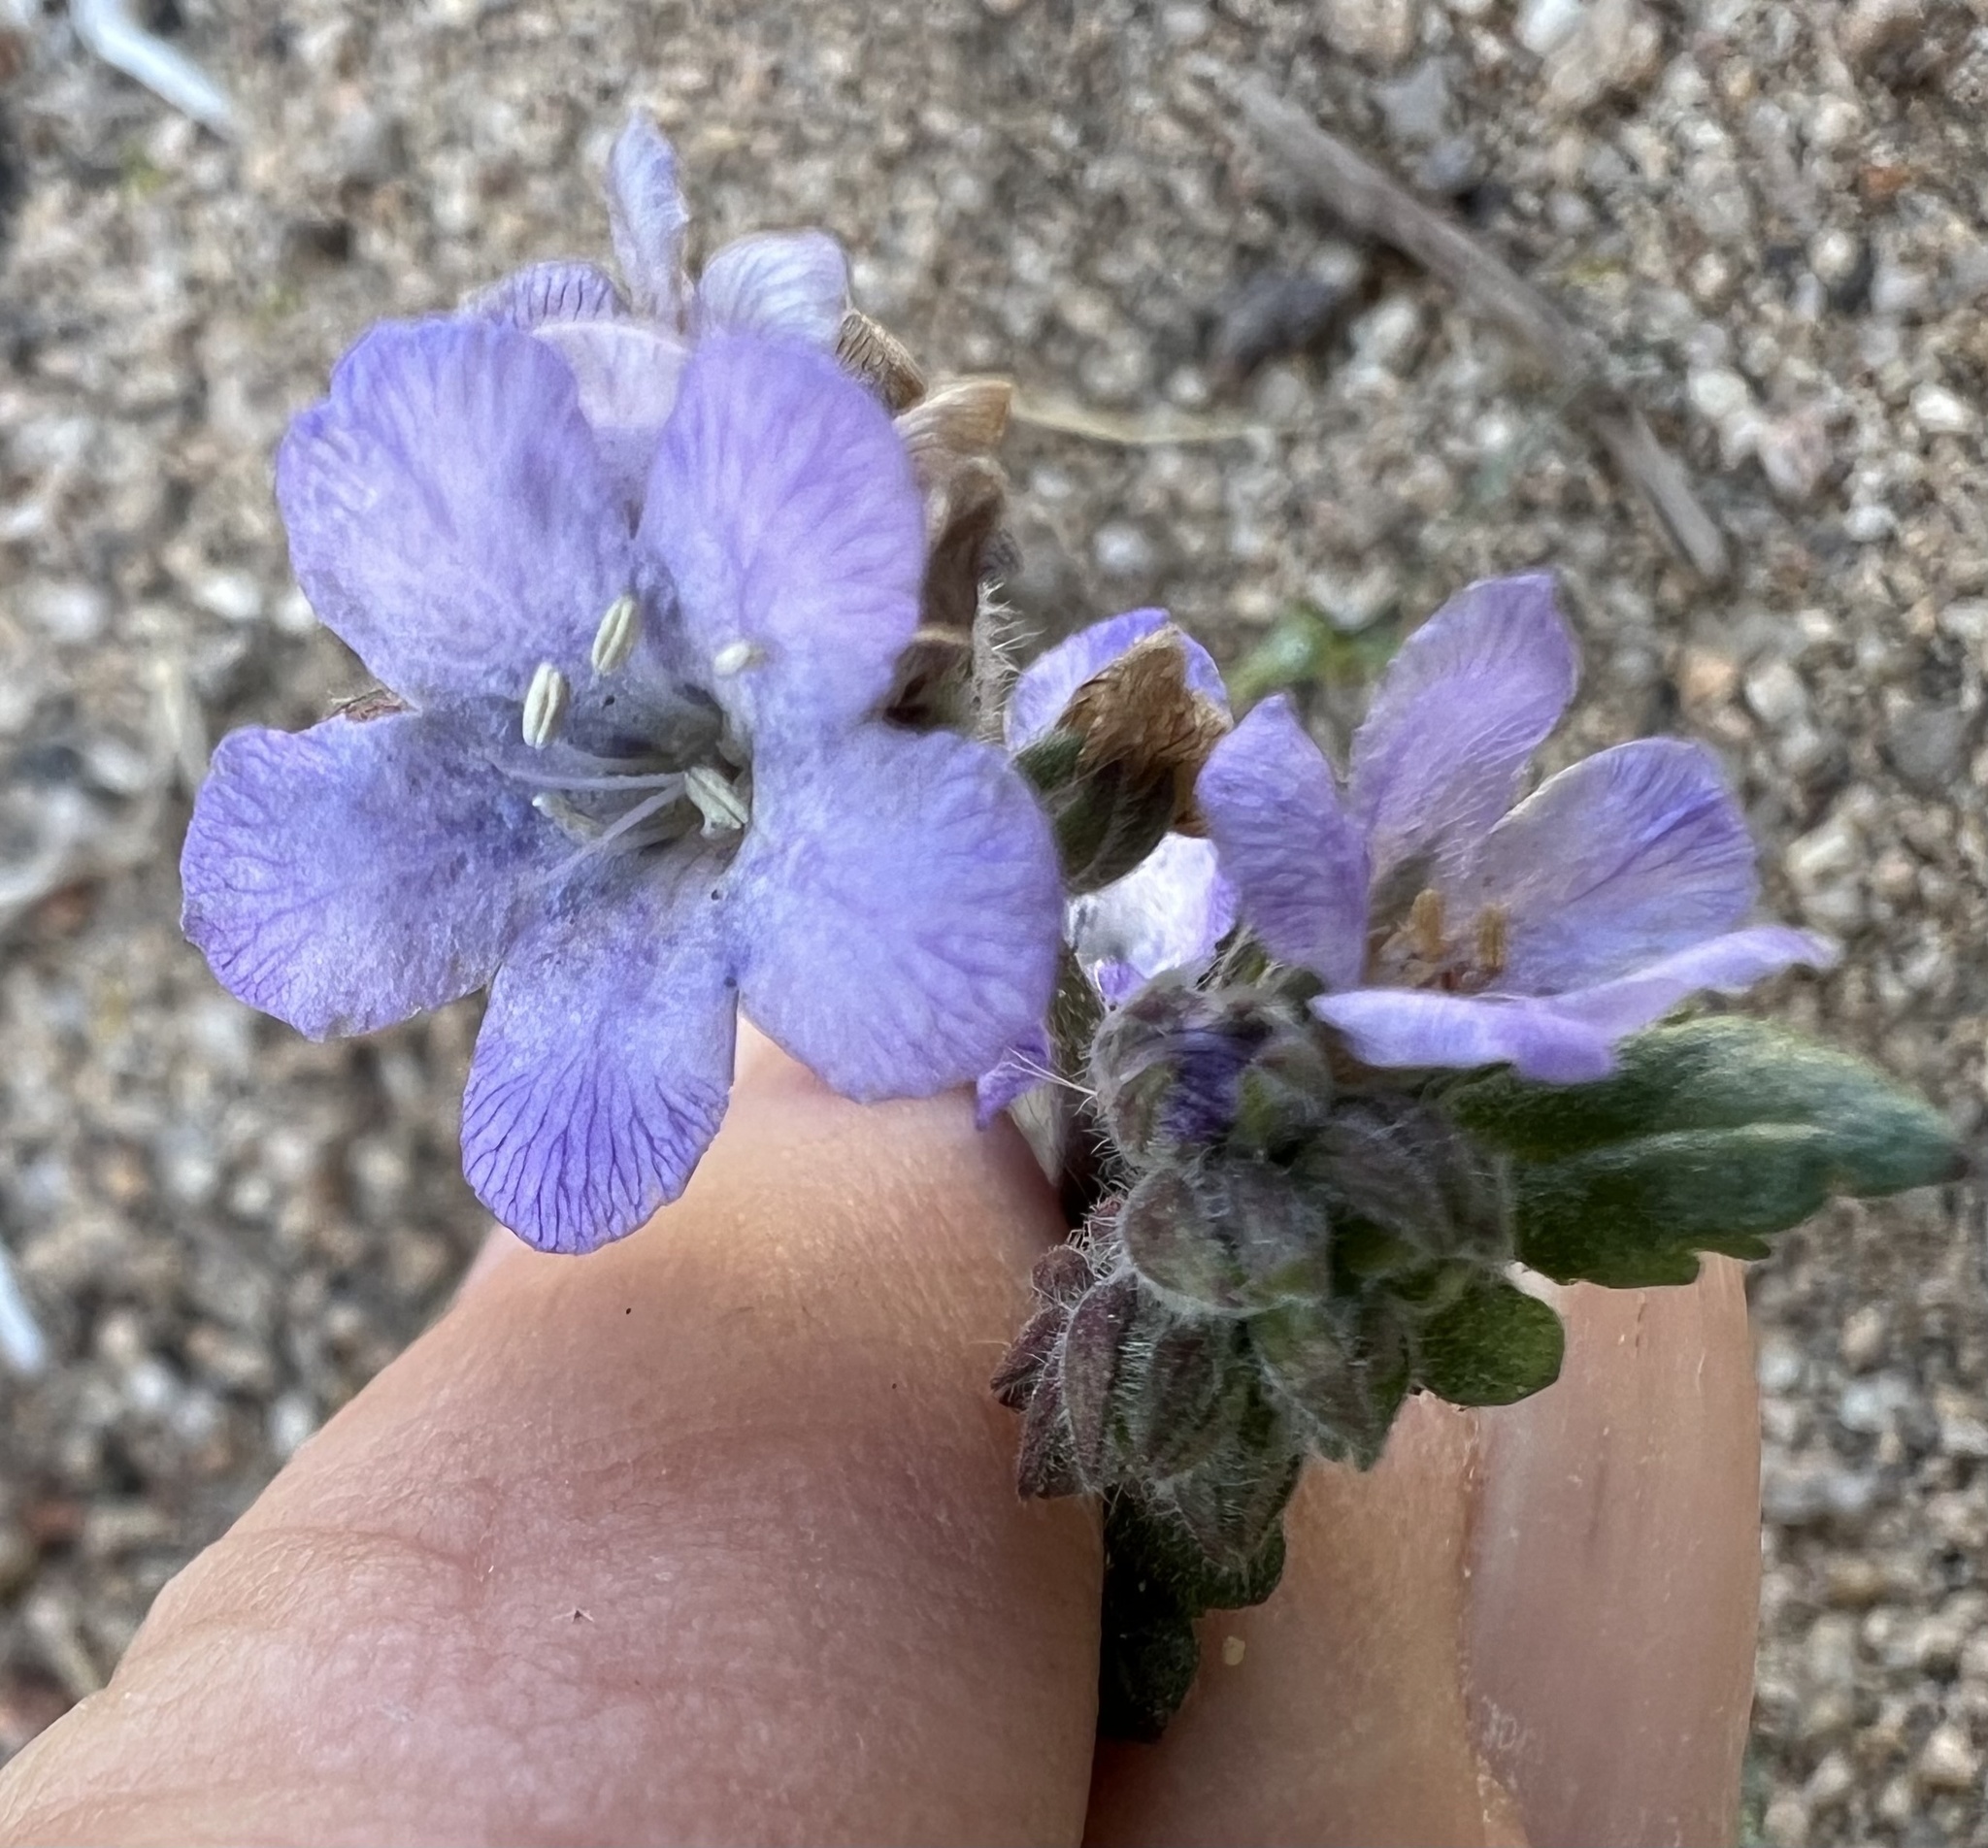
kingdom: Plantae
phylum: Tracheophyta
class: Magnoliopsida
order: Boraginales
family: Hydrophyllaceae
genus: Phacelia
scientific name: Phacelia distans
